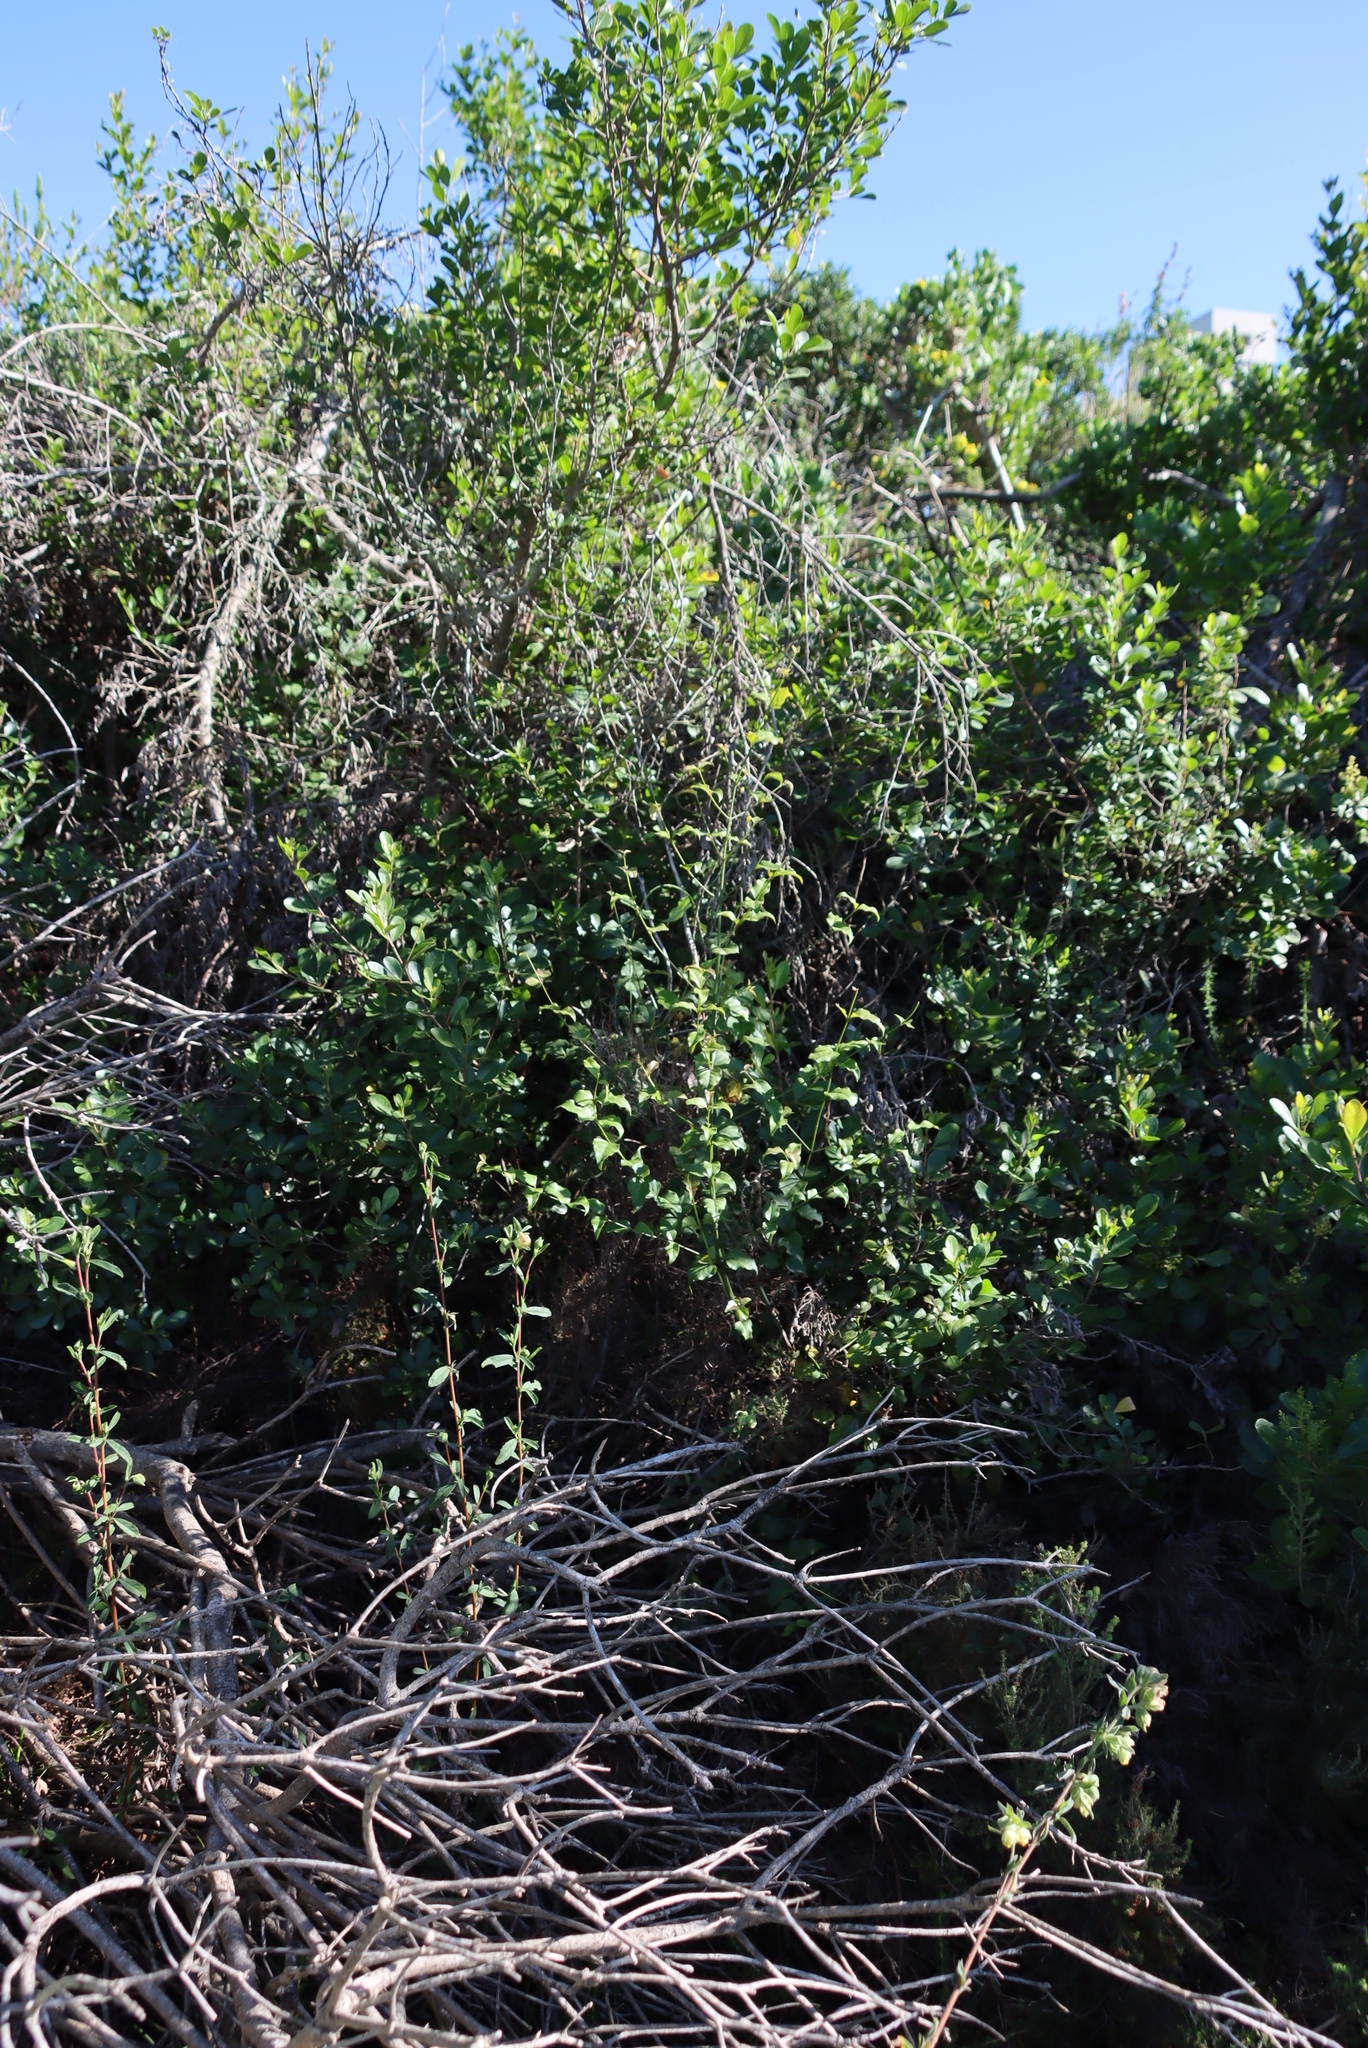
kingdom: Plantae
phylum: Tracheophyta
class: Magnoliopsida
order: Lamiales
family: Stilbaceae
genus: Halleria
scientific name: Halleria lucida
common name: Tree fuschia
